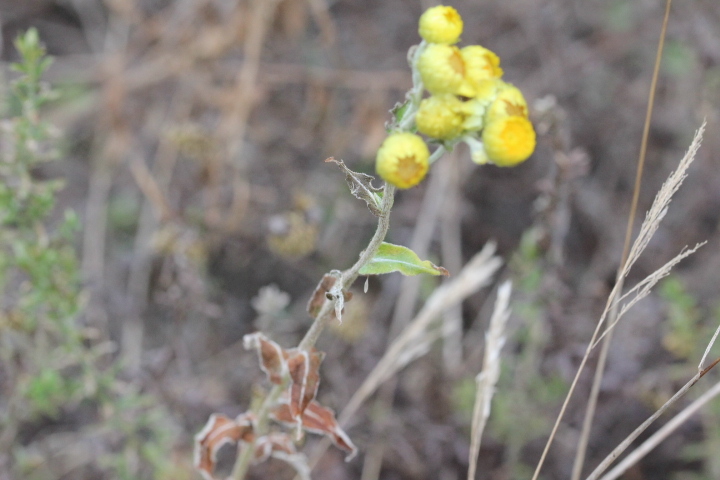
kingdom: Plantae
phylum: Tracheophyta
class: Magnoliopsida
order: Asterales
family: Asteraceae
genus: Helichrysum
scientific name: Helichrysum foetidum
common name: Stinking everlasting
